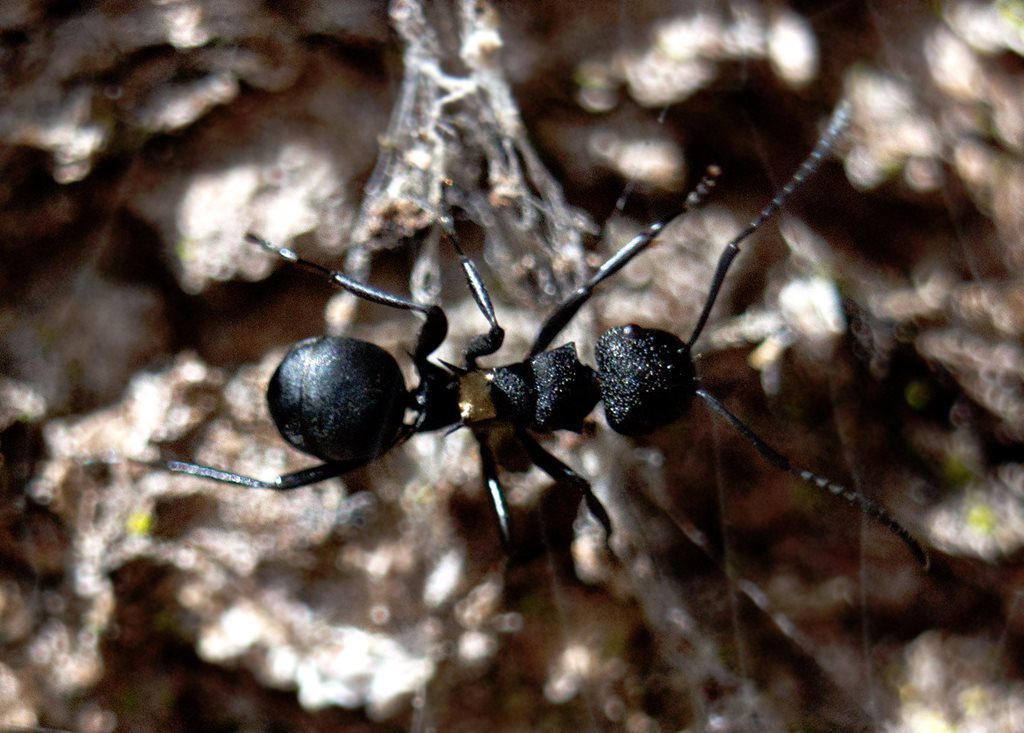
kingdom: Animalia
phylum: Arthropoda
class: Insecta
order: Hymenoptera
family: Formicidae
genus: Polyrhachis
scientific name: Polyrhachis machaon
